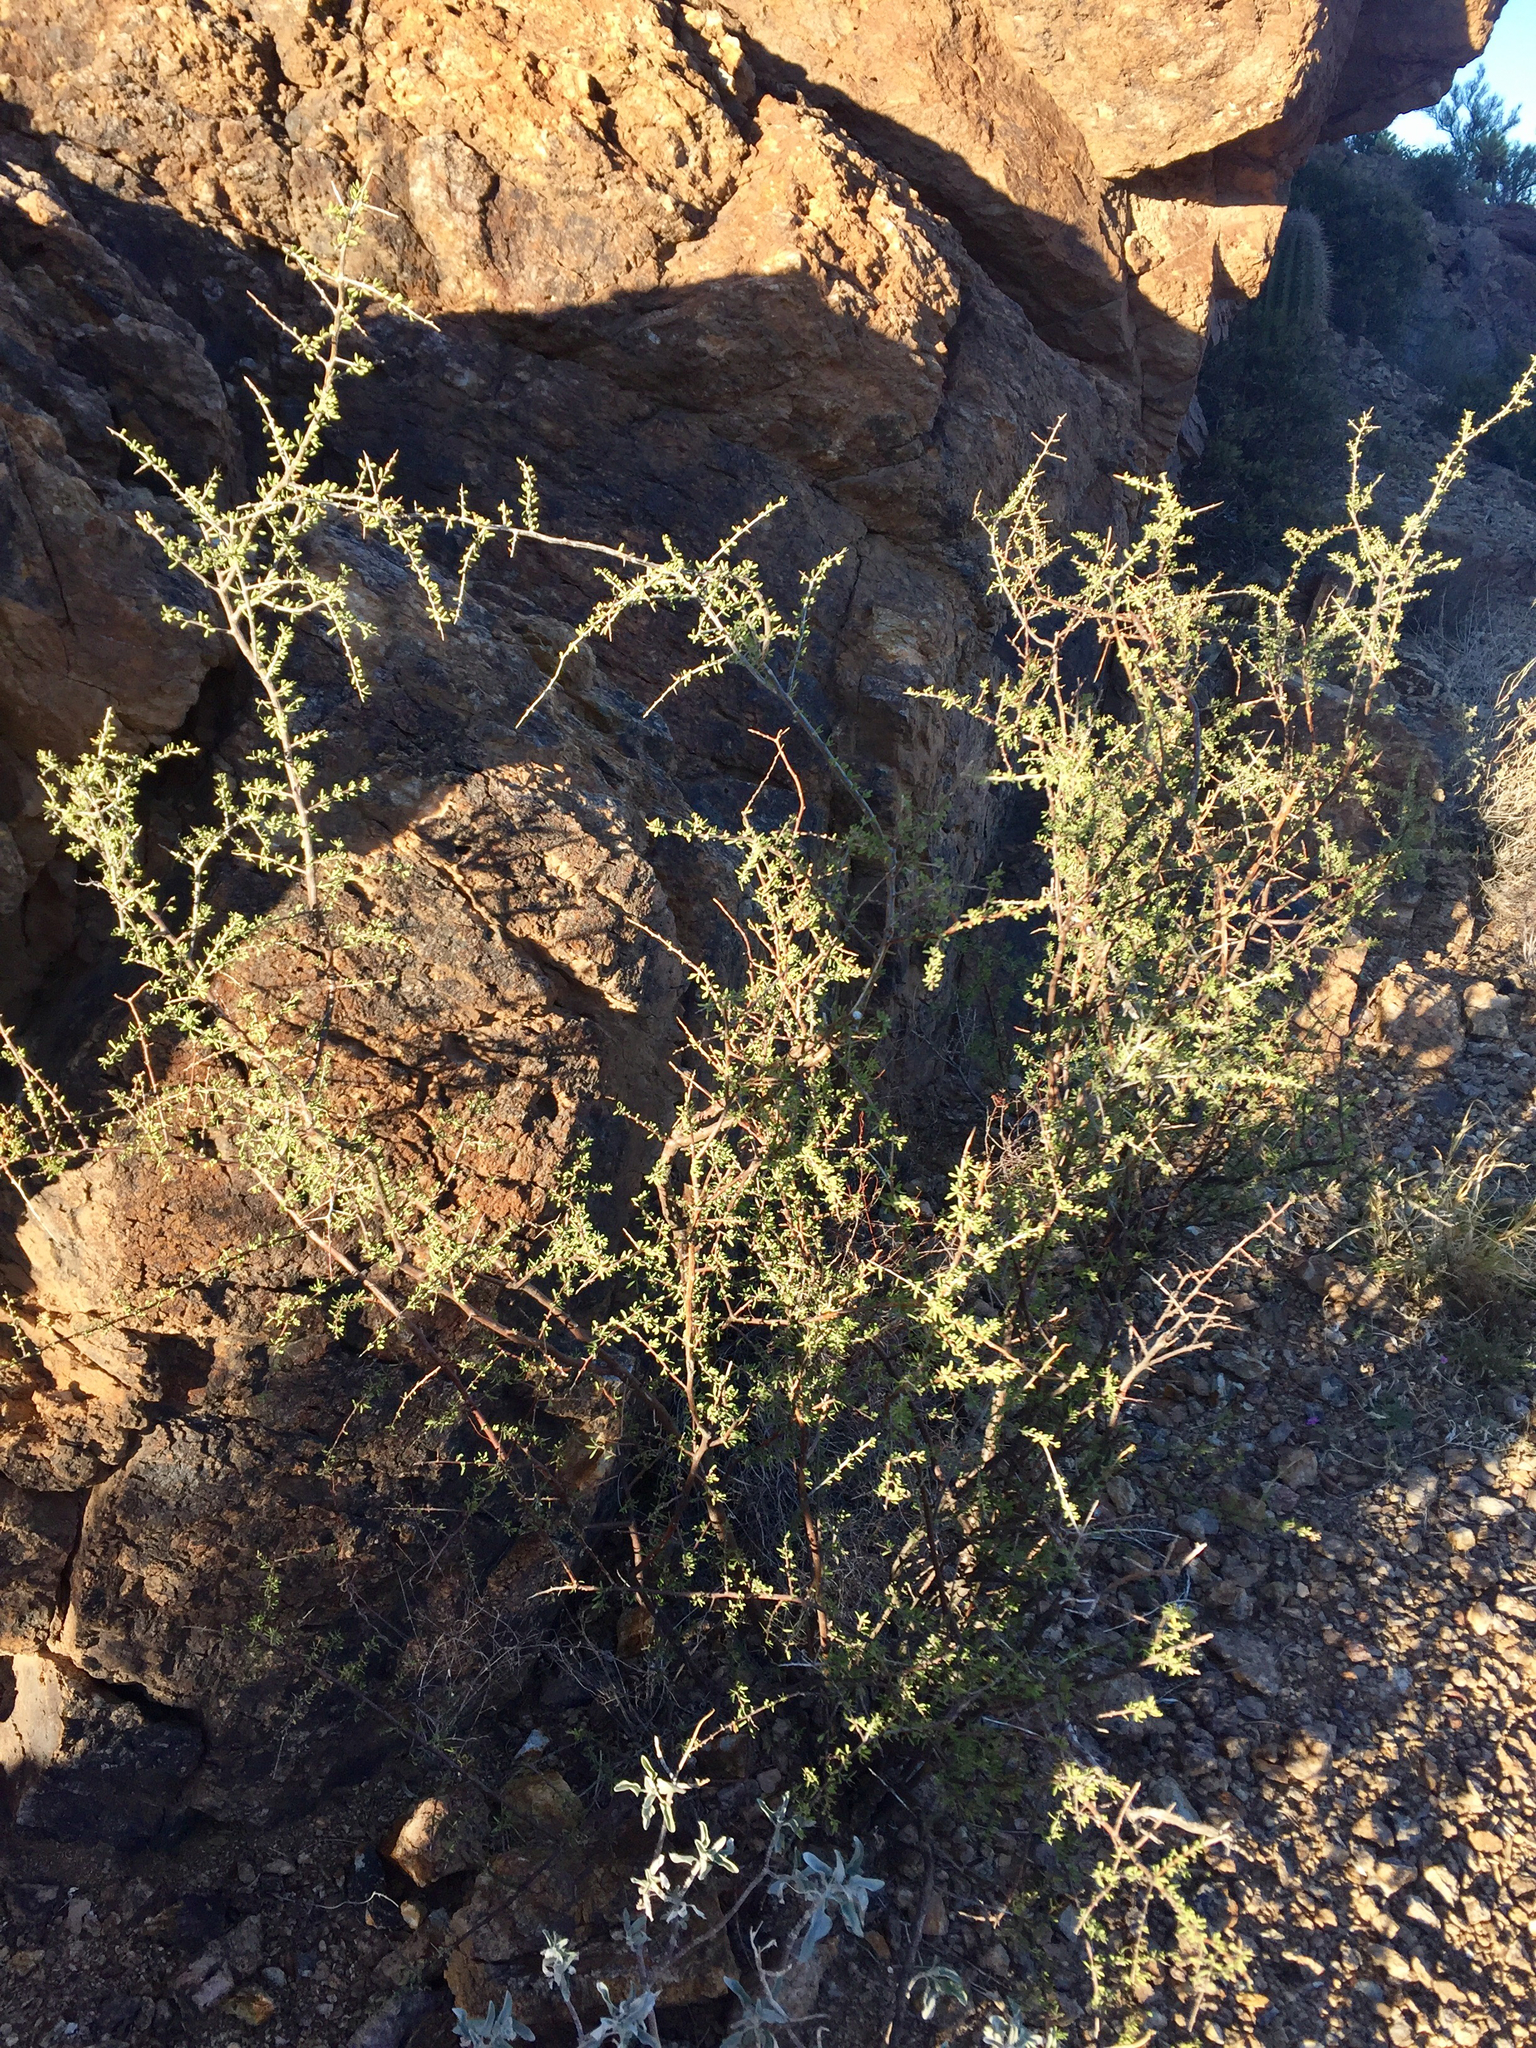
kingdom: Plantae
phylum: Tracheophyta
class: Magnoliopsida
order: Solanales
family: Solanaceae
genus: Lycium
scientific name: Lycium berlandieri
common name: Berlandier wolfberry
